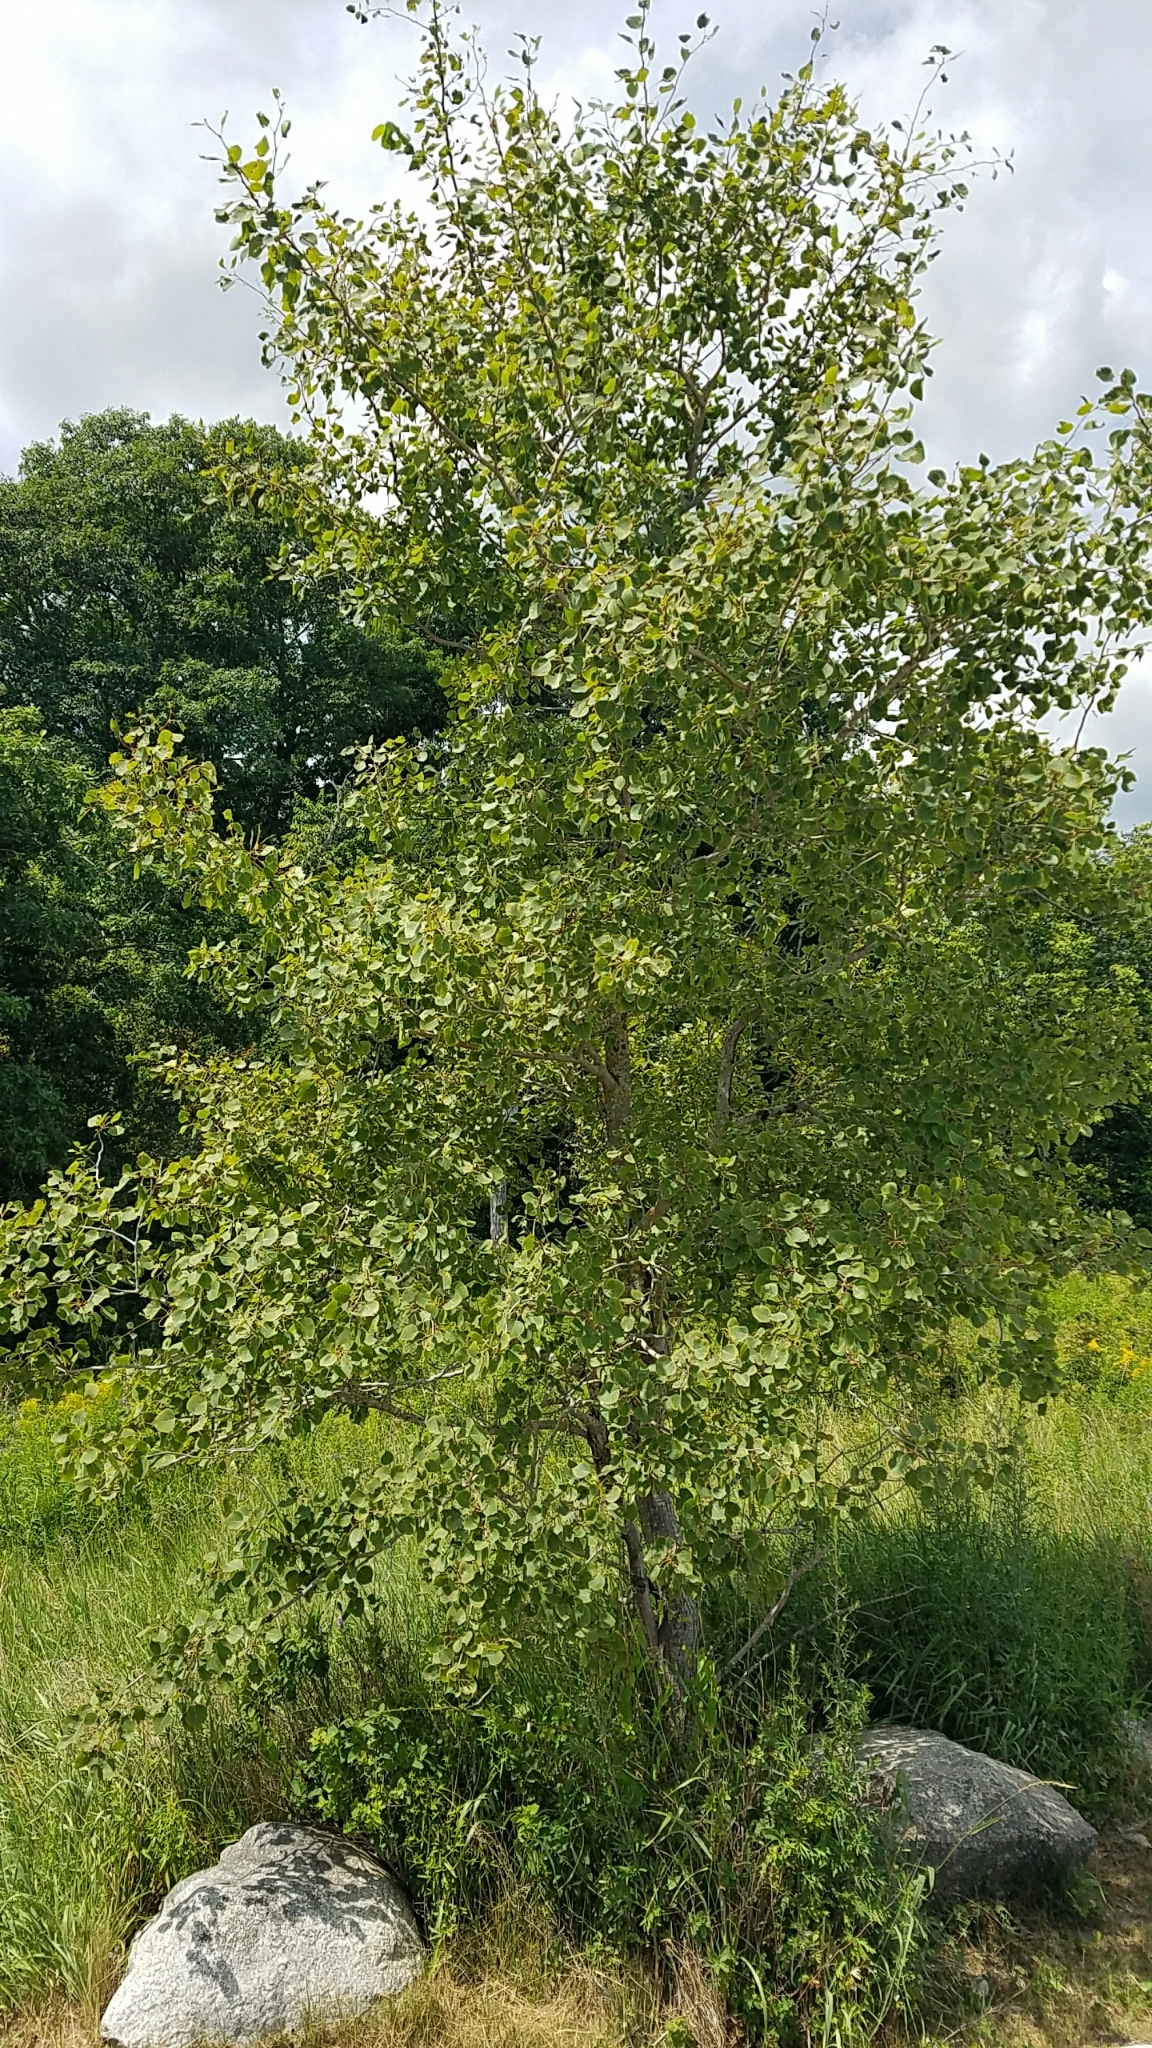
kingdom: Plantae
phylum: Tracheophyta
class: Magnoliopsida
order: Malpighiales
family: Salicaceae
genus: Populus
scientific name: Populus tremuloides
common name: Quaking aspen
